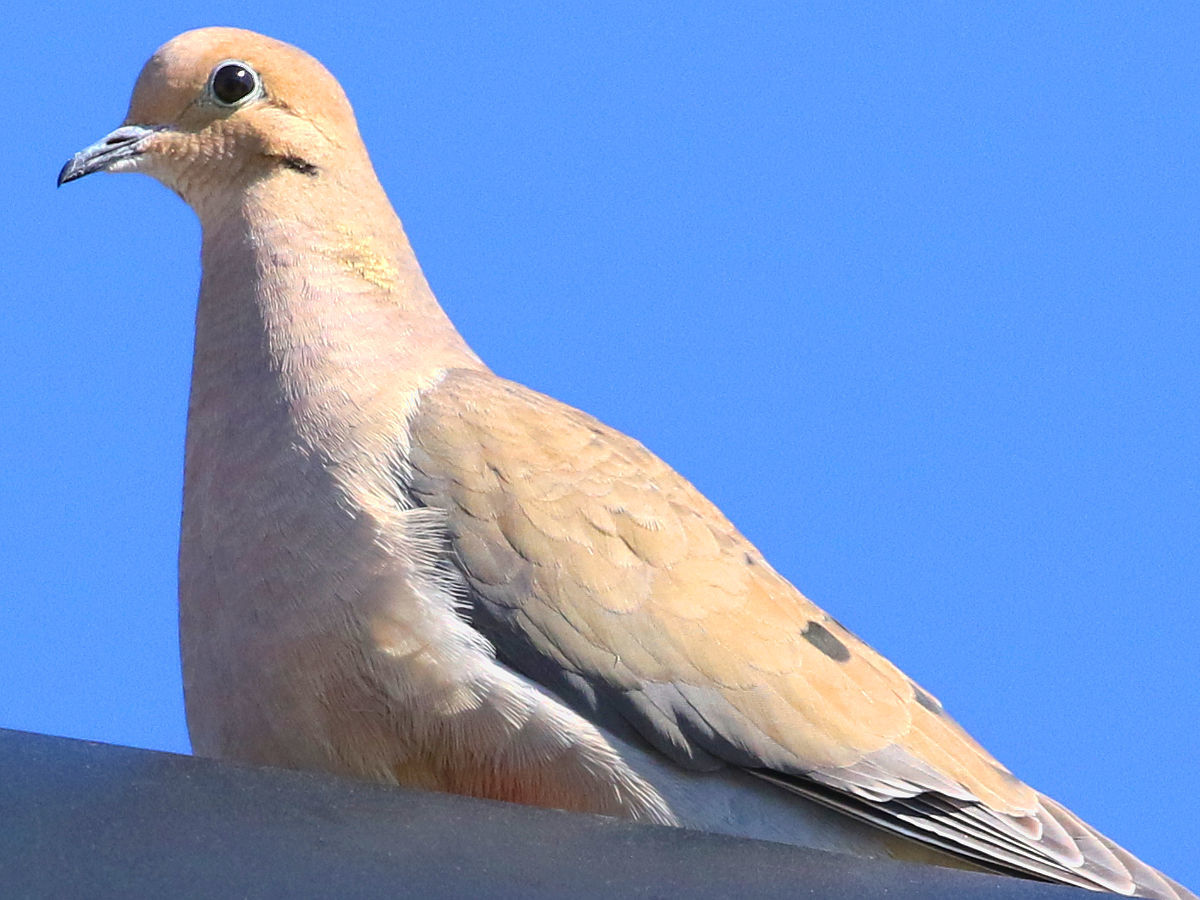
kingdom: Animalia
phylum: Chordata
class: Aves
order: Columbiformes
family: Columbidae
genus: Zenaida
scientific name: Zenaida macroura
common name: Mourning dove
